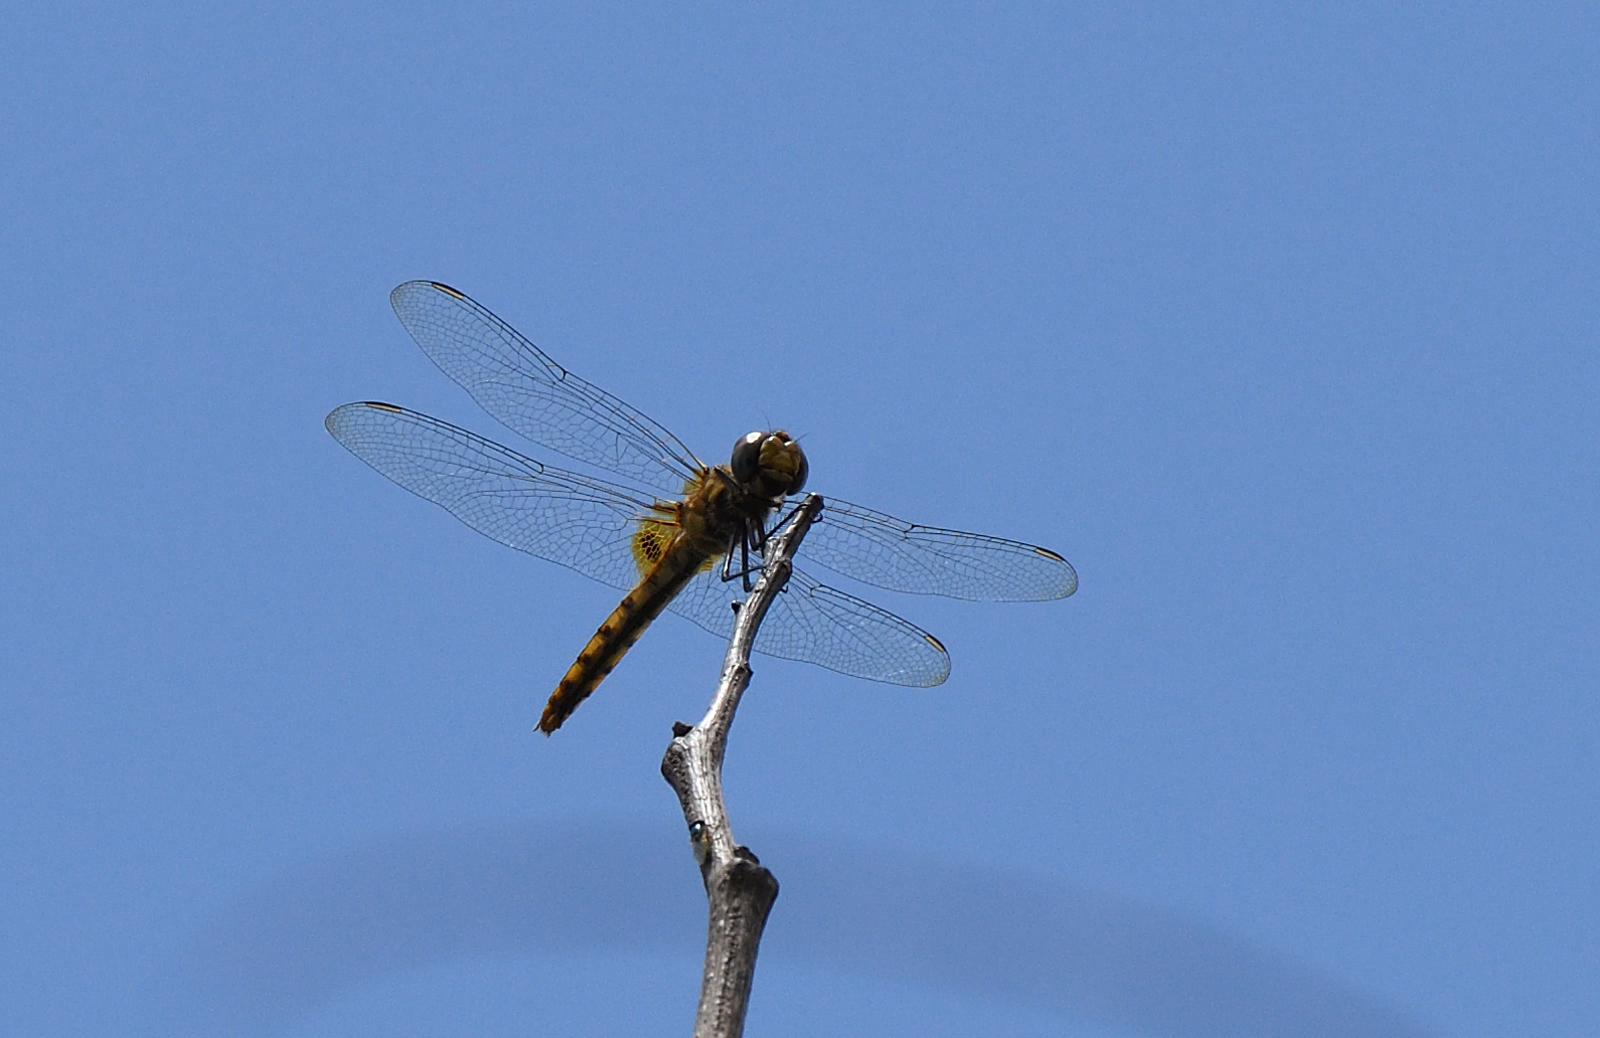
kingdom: Animalia
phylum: Arthropoda
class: Insecta
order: Odonata
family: Libellulidae
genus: Urothemis
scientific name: Urothemis signata
